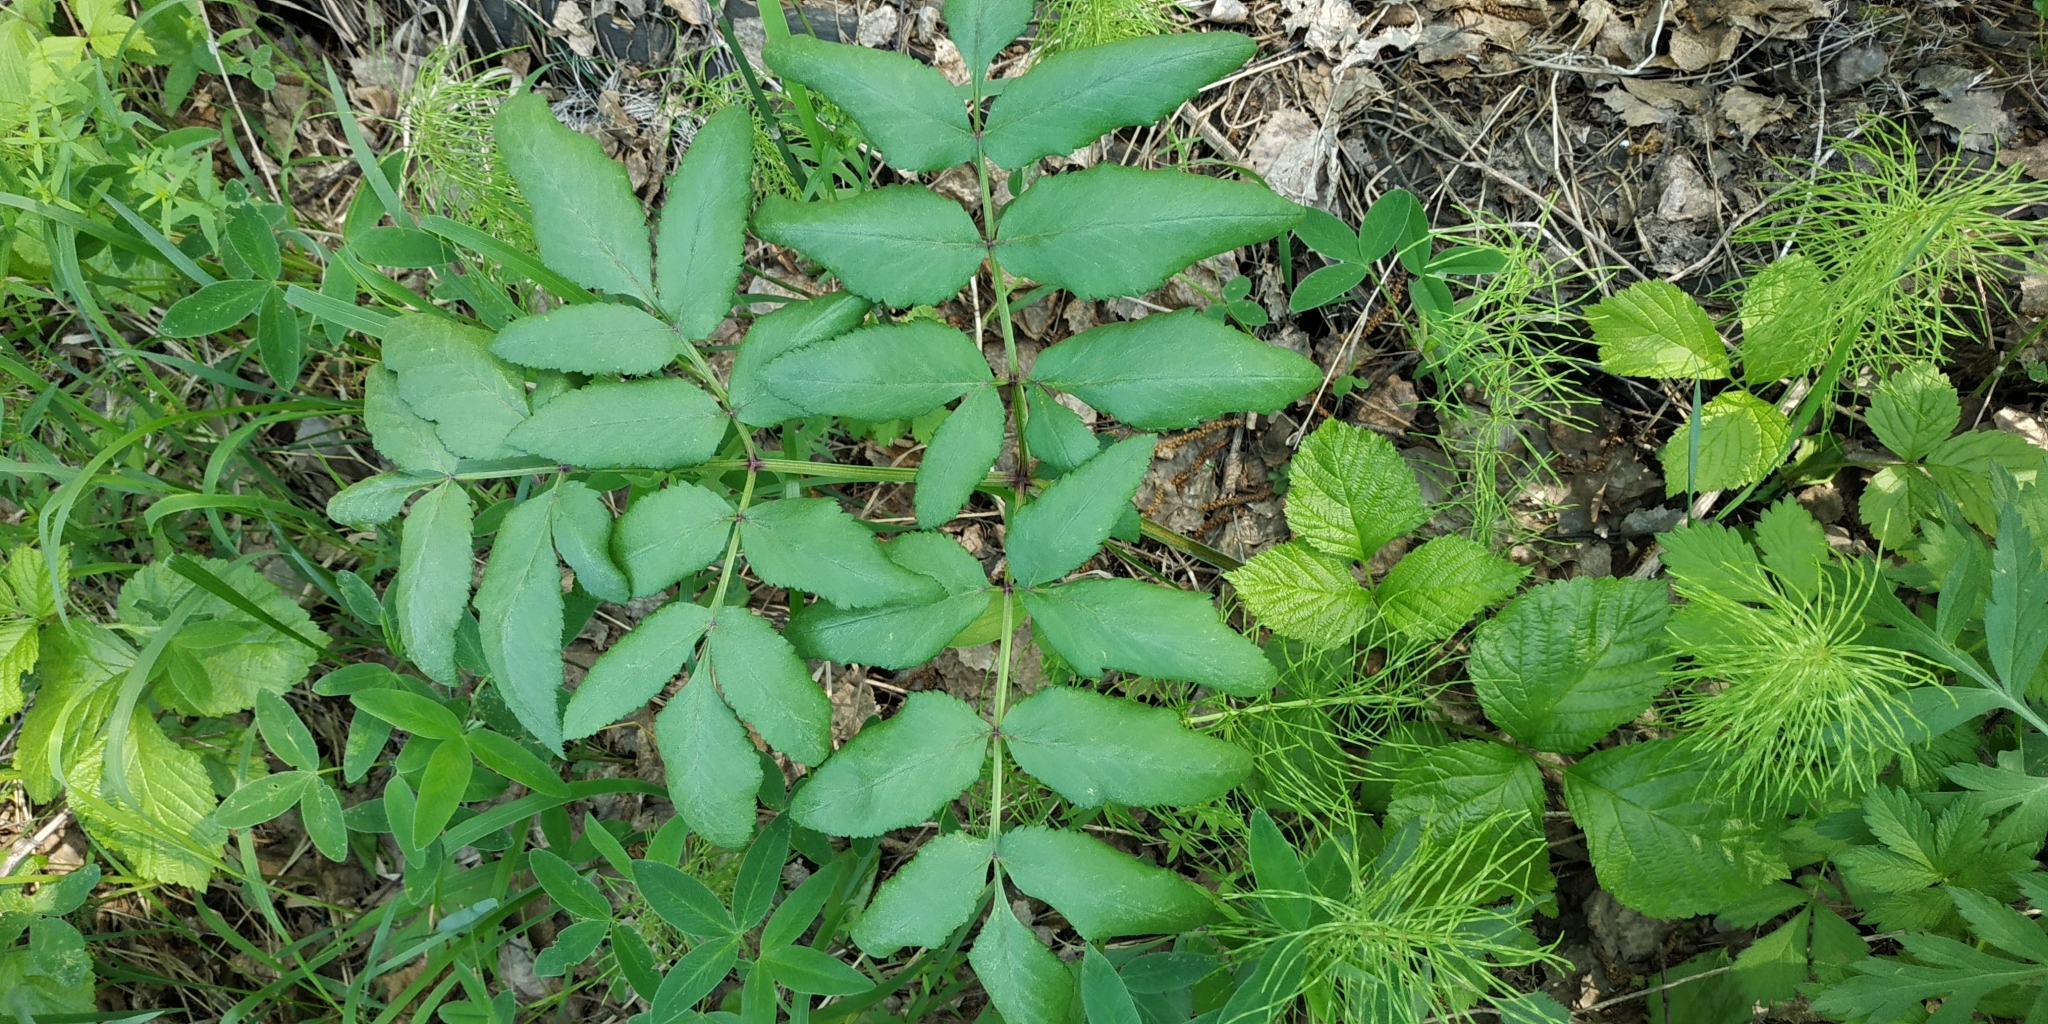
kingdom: Plantae
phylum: Tracheophyta
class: Magnoliopsida
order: Apiales
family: Apiaceae
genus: Angelica
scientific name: Angelica sylvestris
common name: Wild angelica
